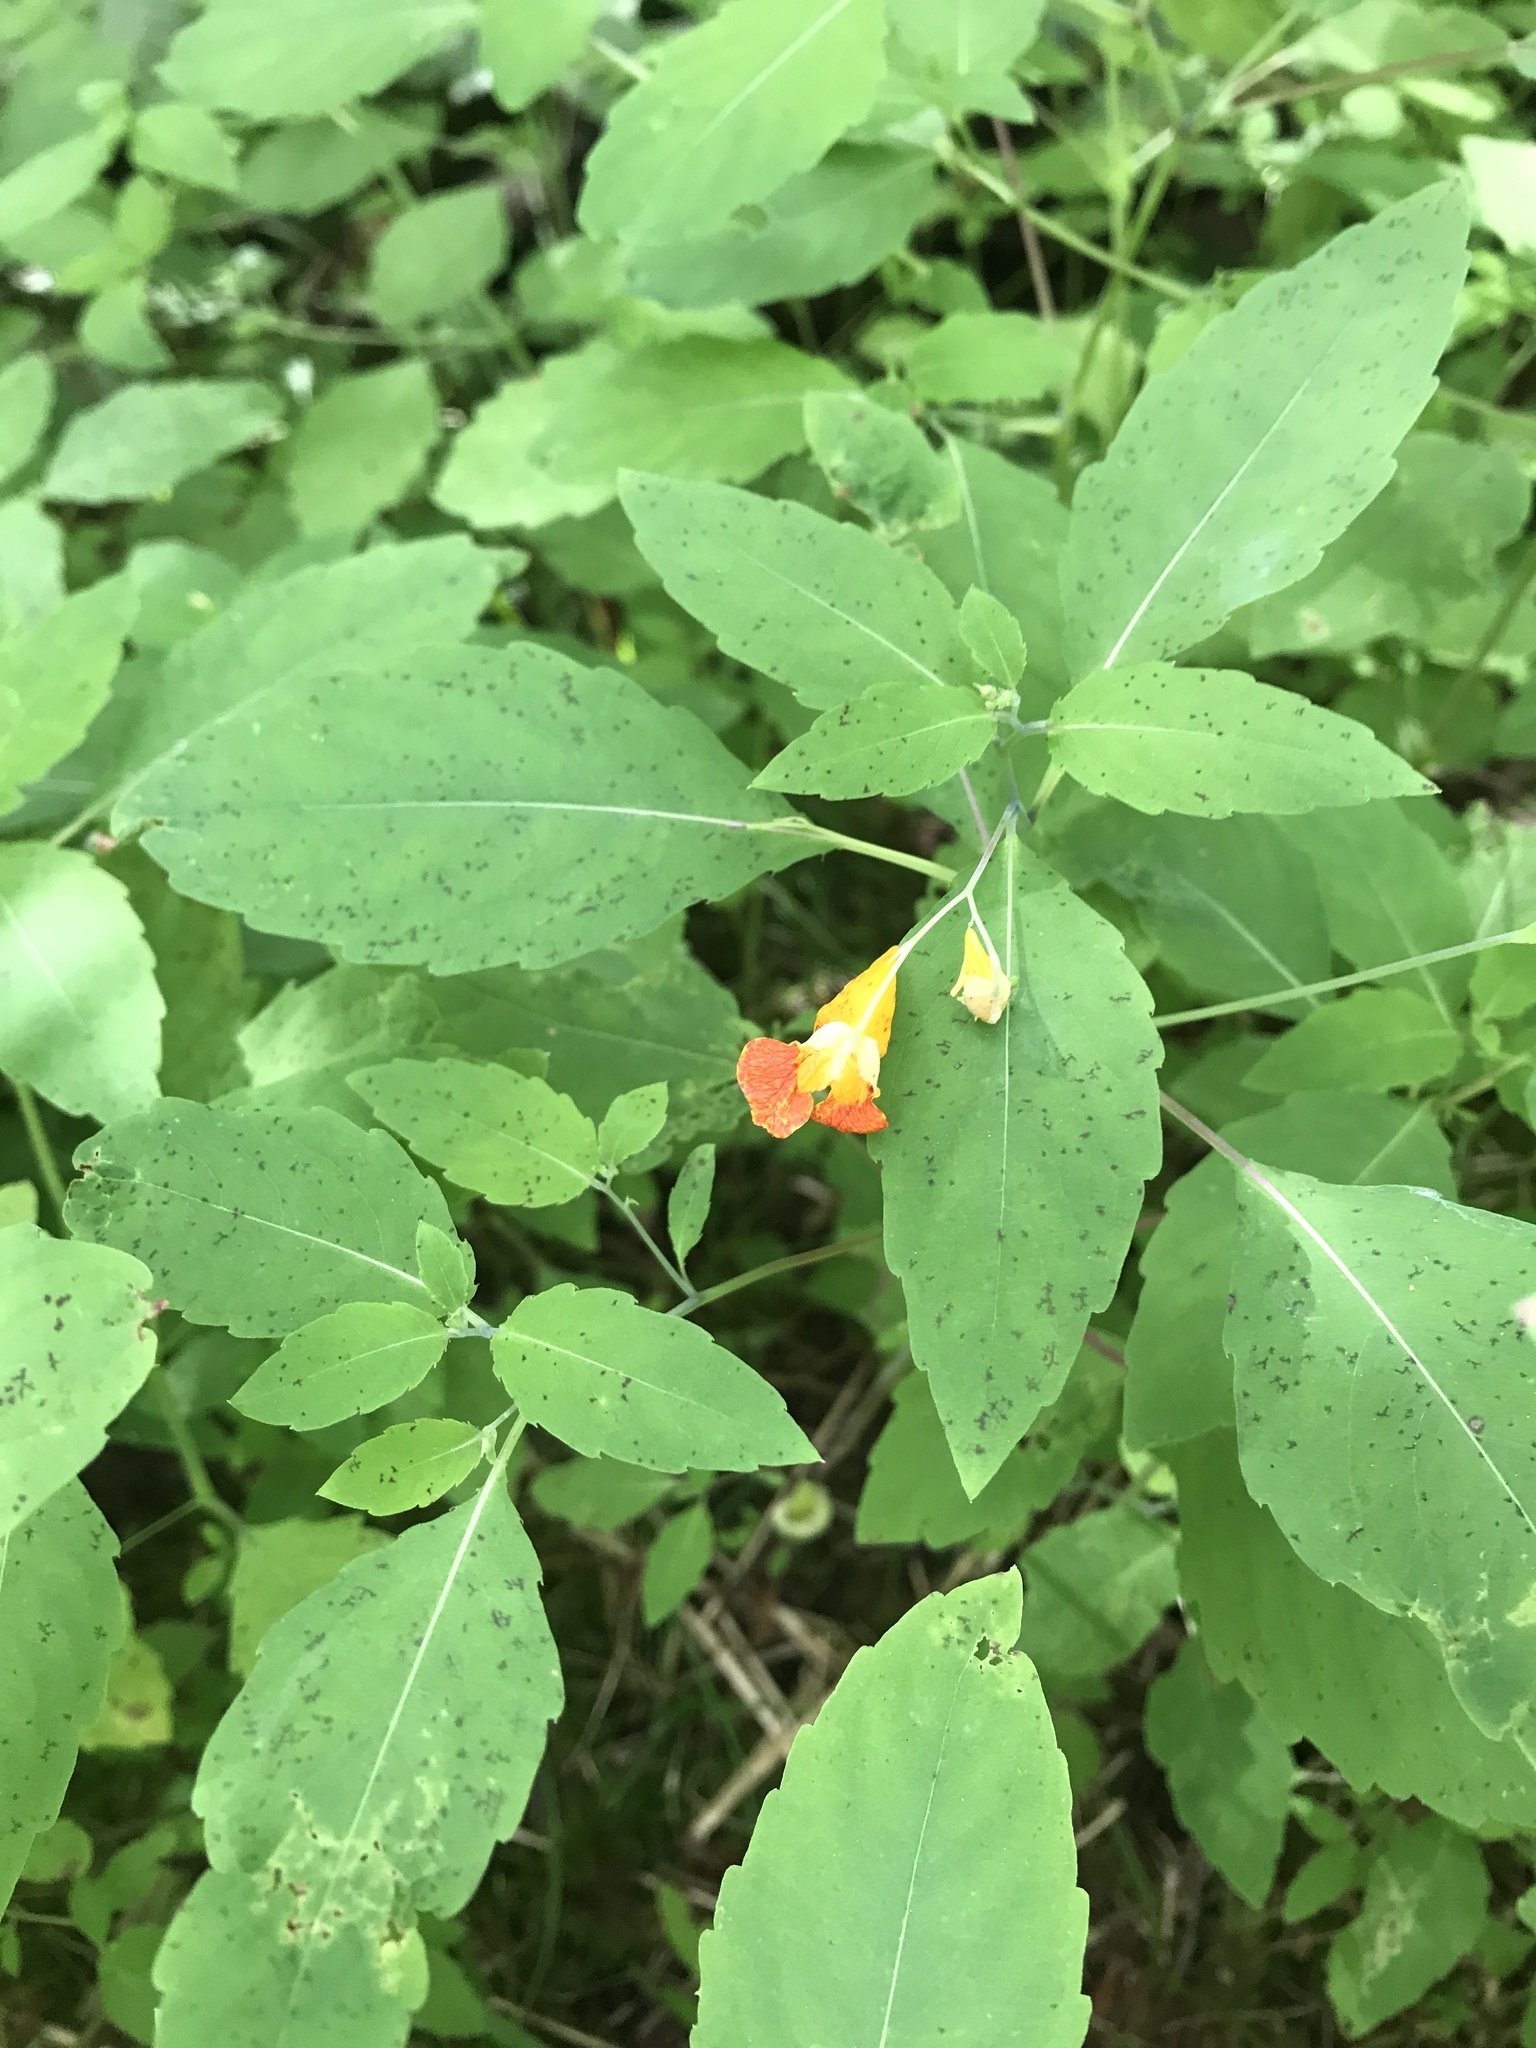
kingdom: Plantae
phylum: Tracheophyta
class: Magnoliopsida
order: Ericales
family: Balsaminaceae
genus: Impatiens
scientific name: Impatiens capensis
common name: Orange balsam
